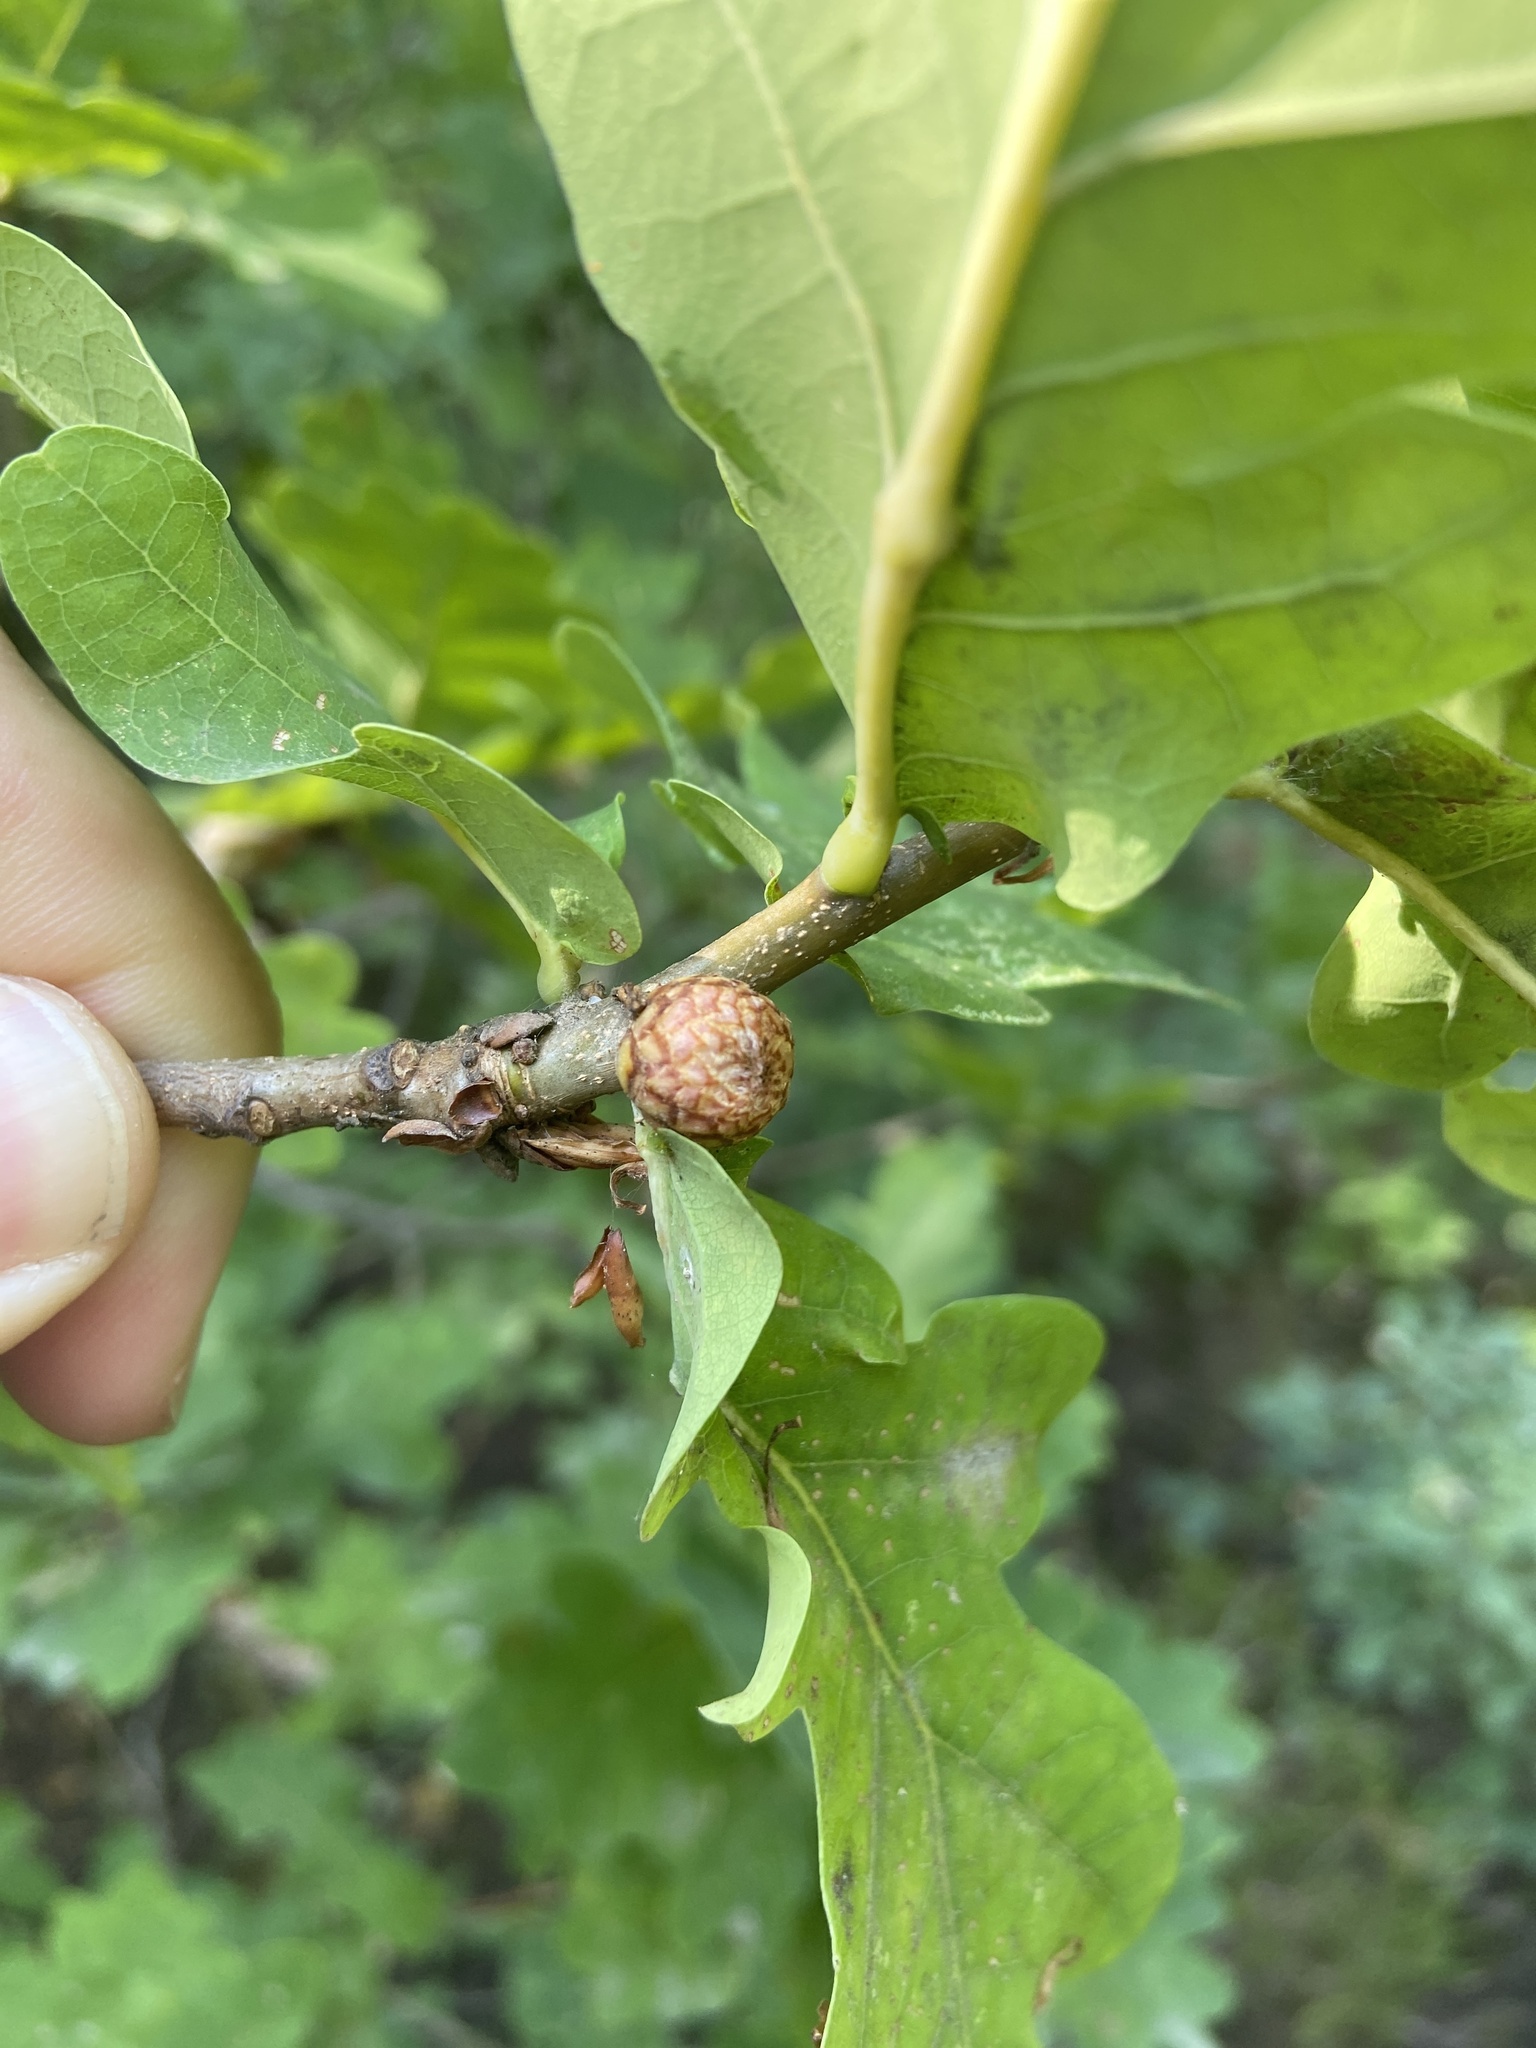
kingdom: Animalia
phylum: Arthropoda
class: Insecta
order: Hymenoptera
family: Cynipidae
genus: Andricus
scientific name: Andricus foecundatrix
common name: Artichoke gall
